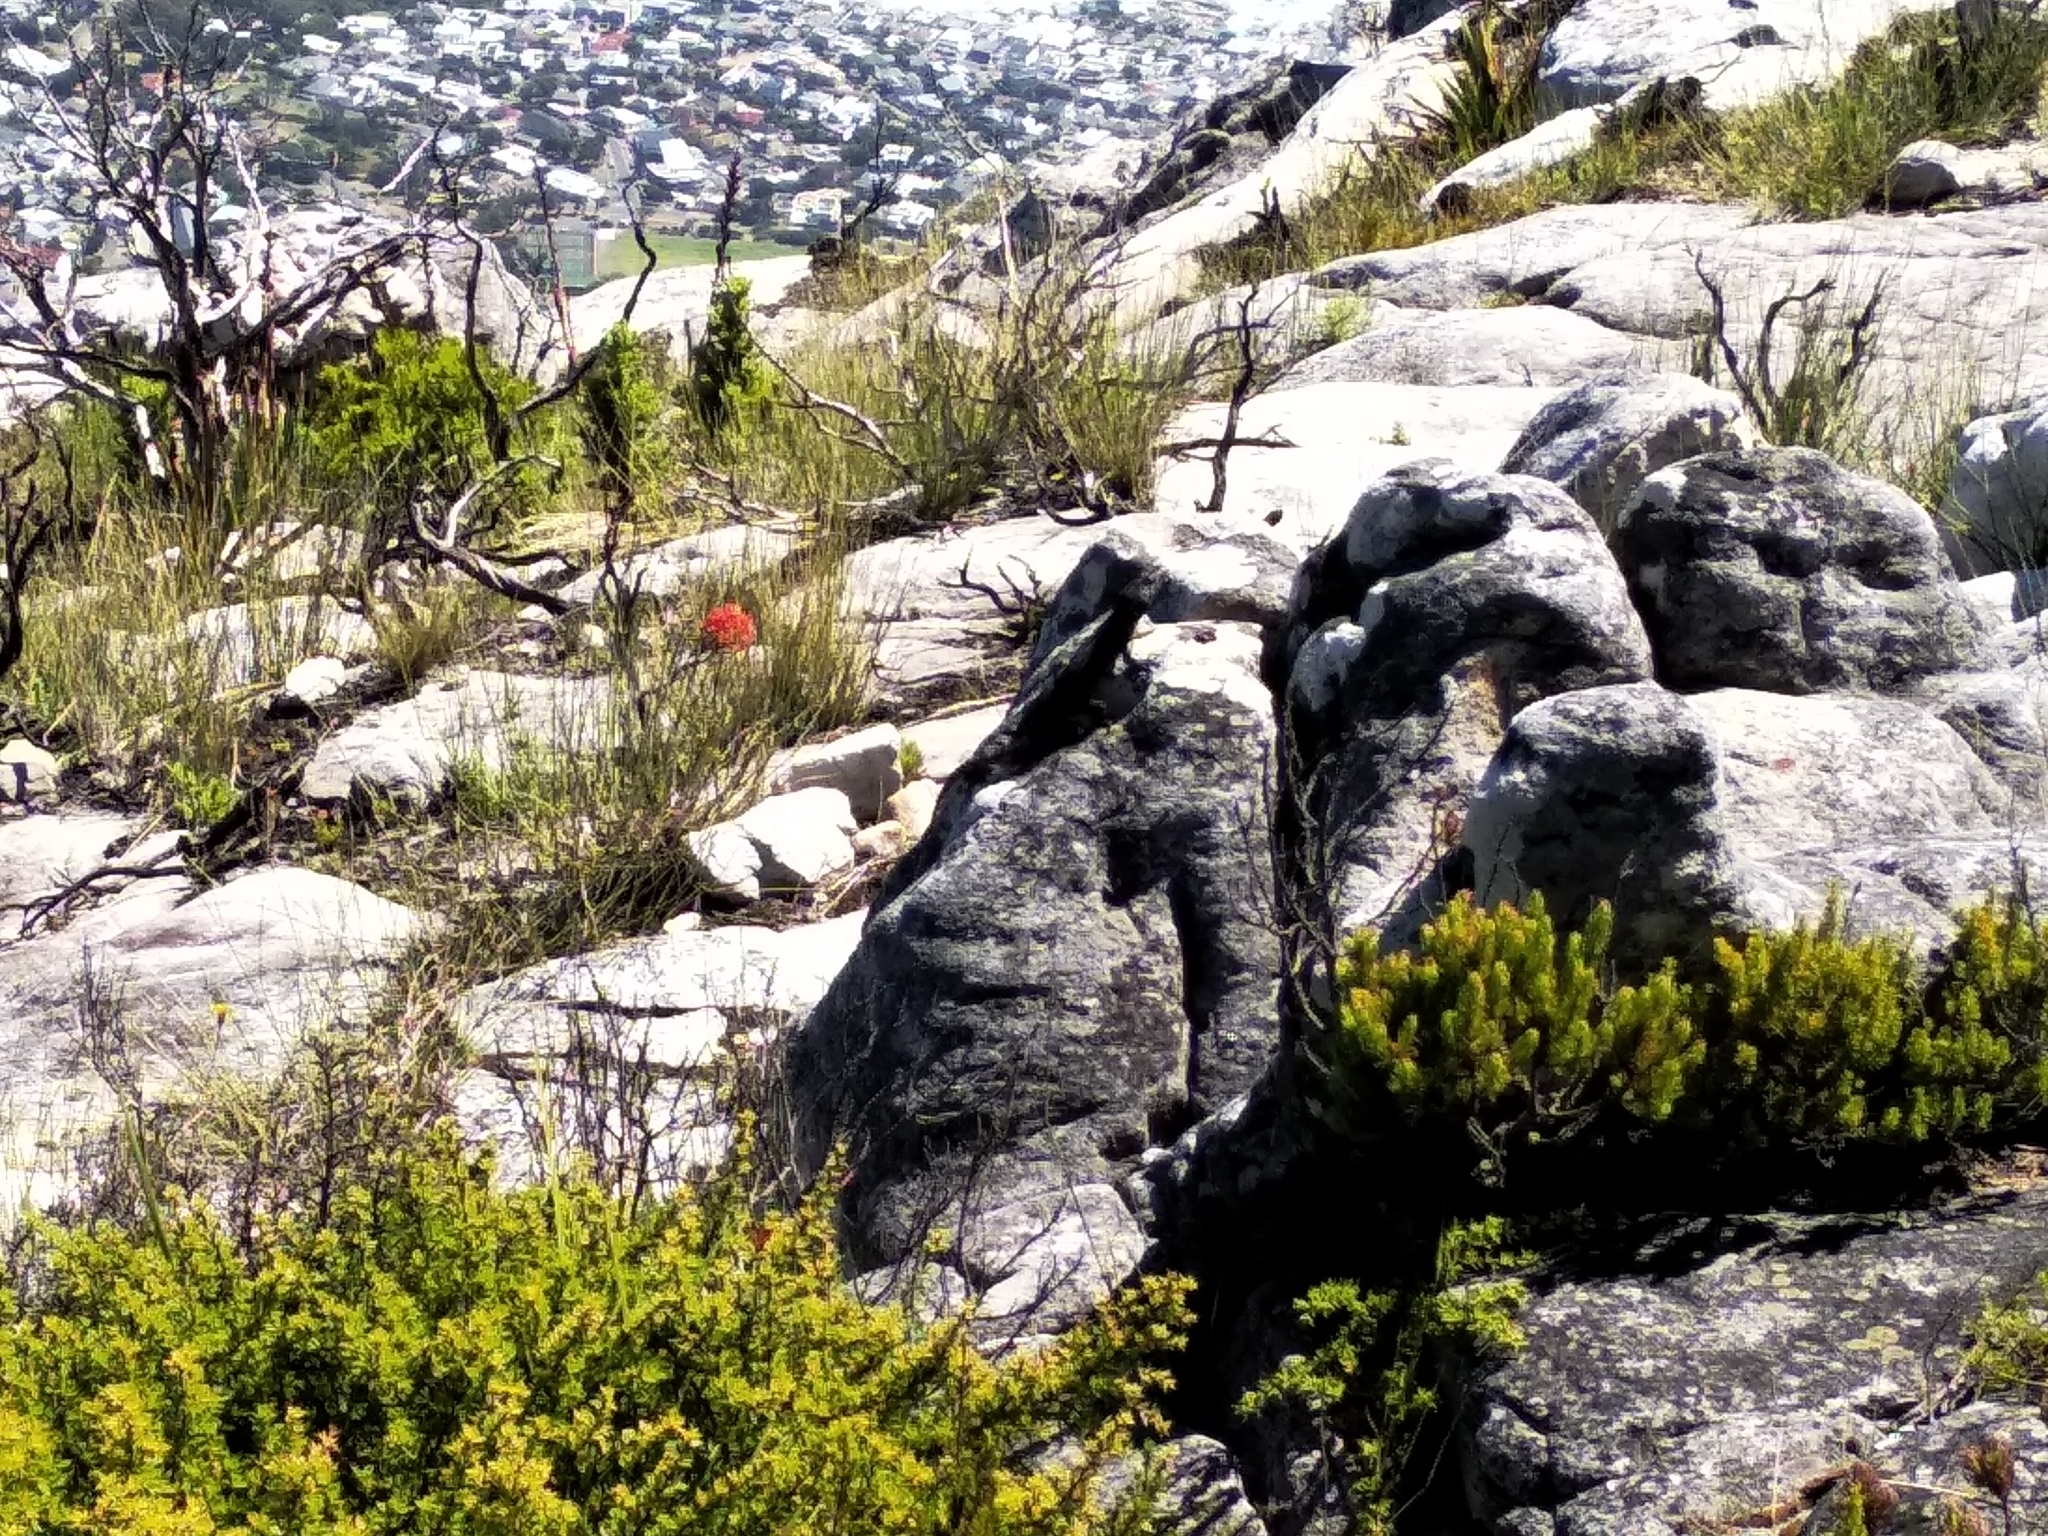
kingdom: Animalia
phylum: Chordata
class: Squamata
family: Cordylidae
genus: Pseudocordylus
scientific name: Pseudocordylus microlepidotus
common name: Cape crag lizard
